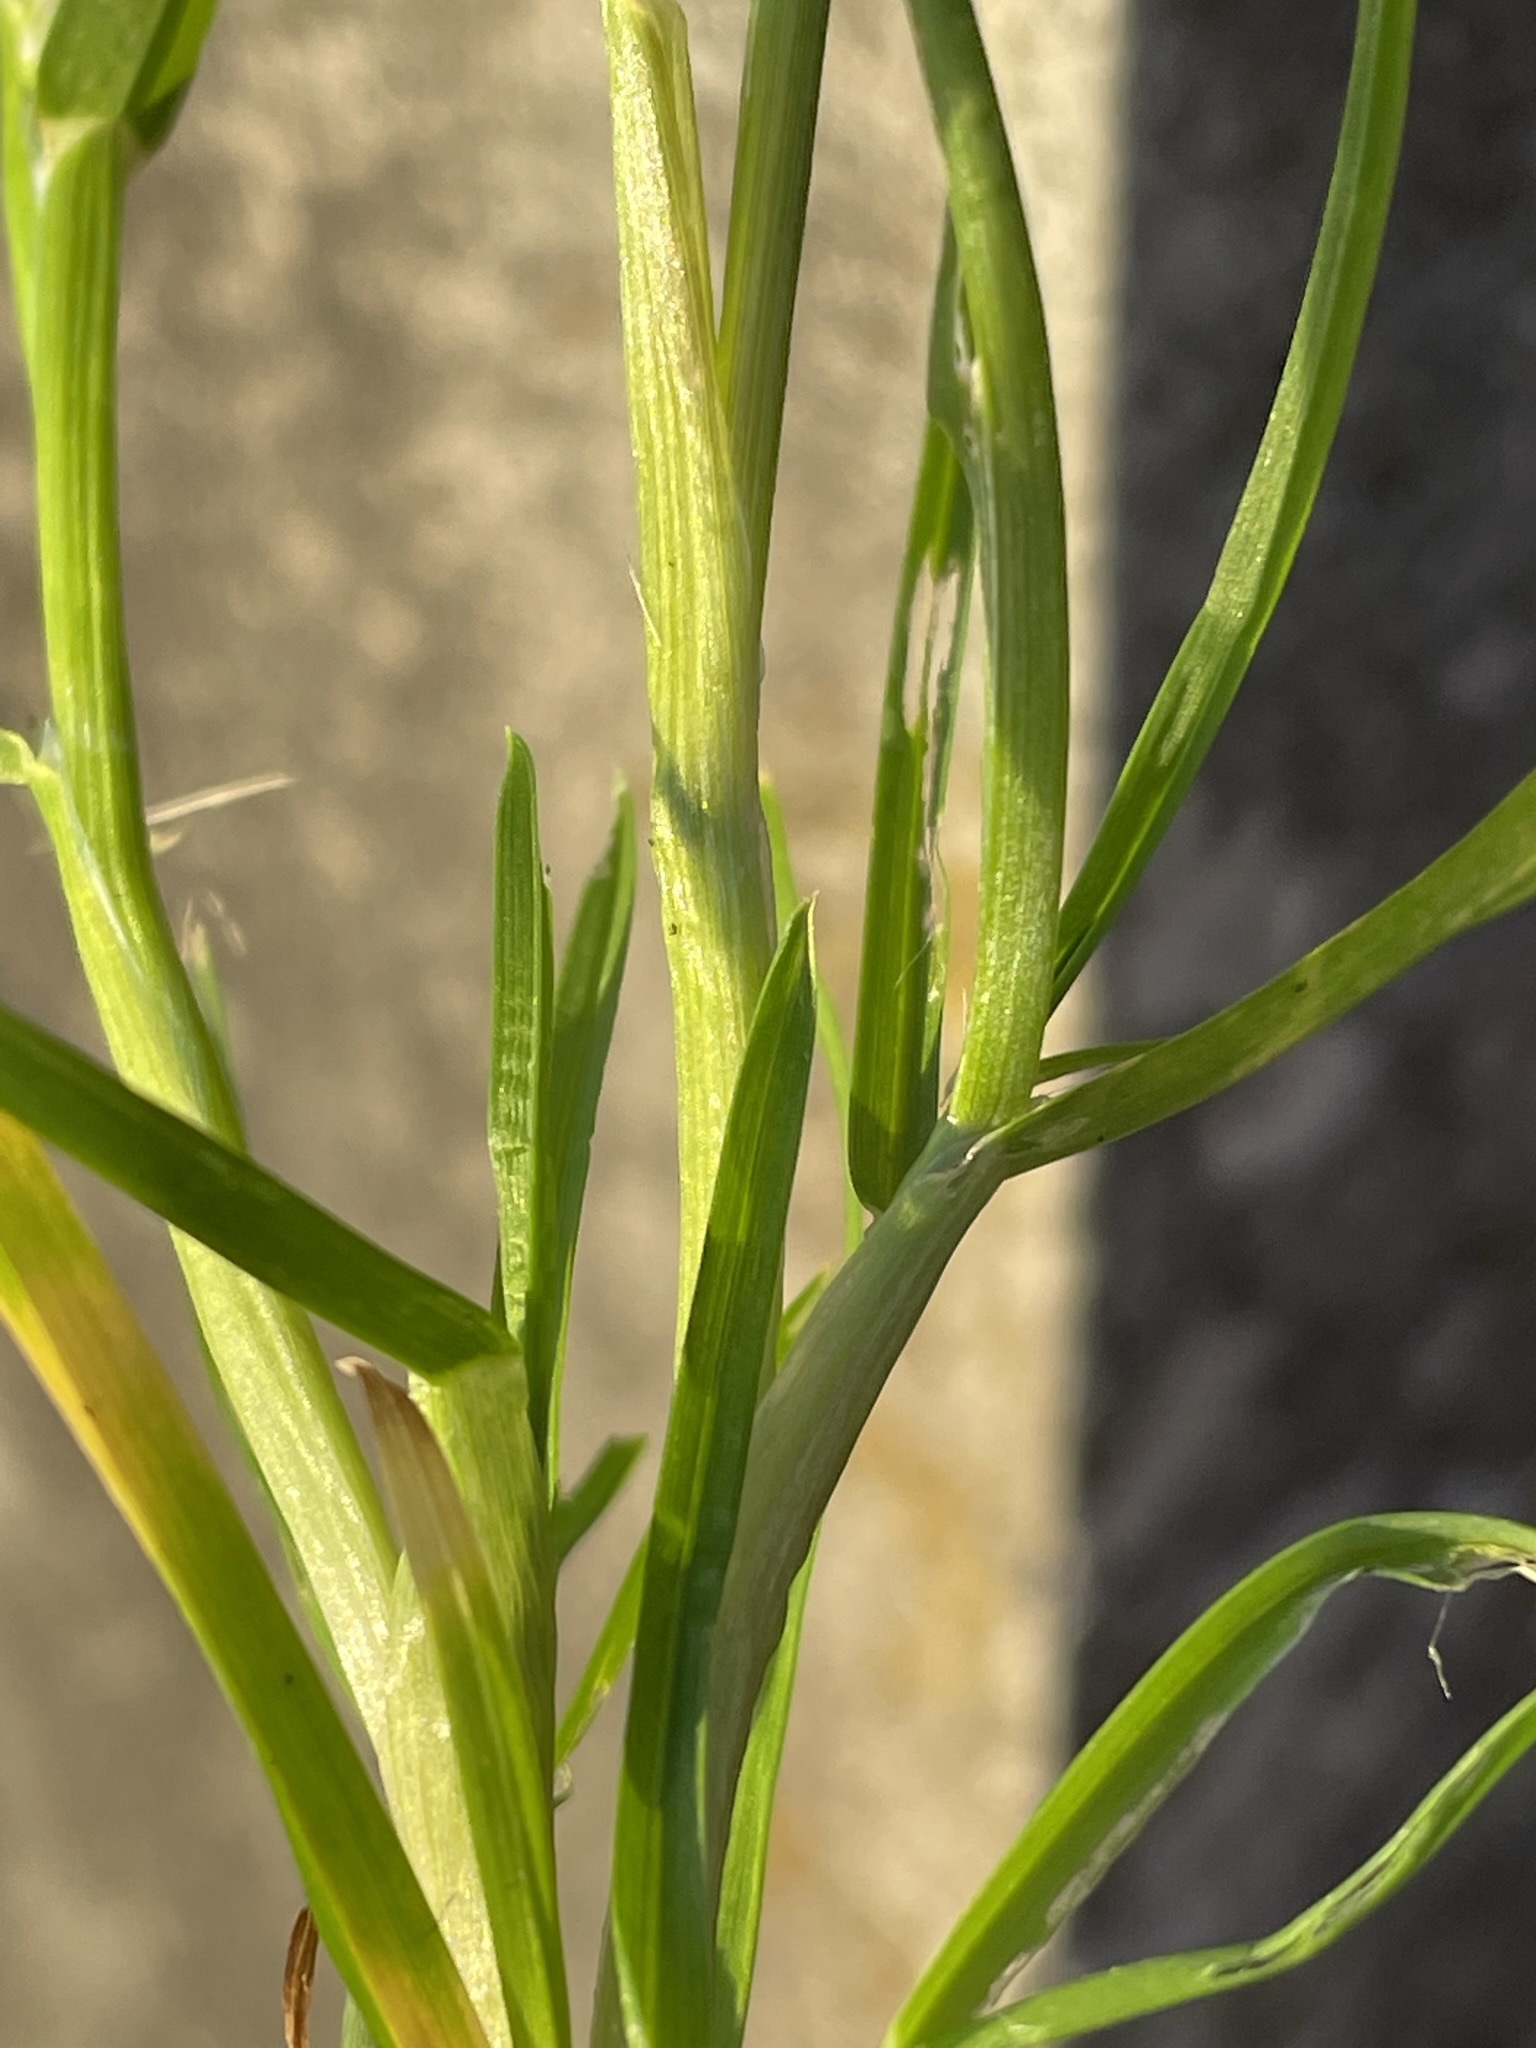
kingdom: Plantae
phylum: Tracheophyta
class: Liliopsida
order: Poales
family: Poaceae
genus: Poa
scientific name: Poa annua
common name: Annual bluegrass
